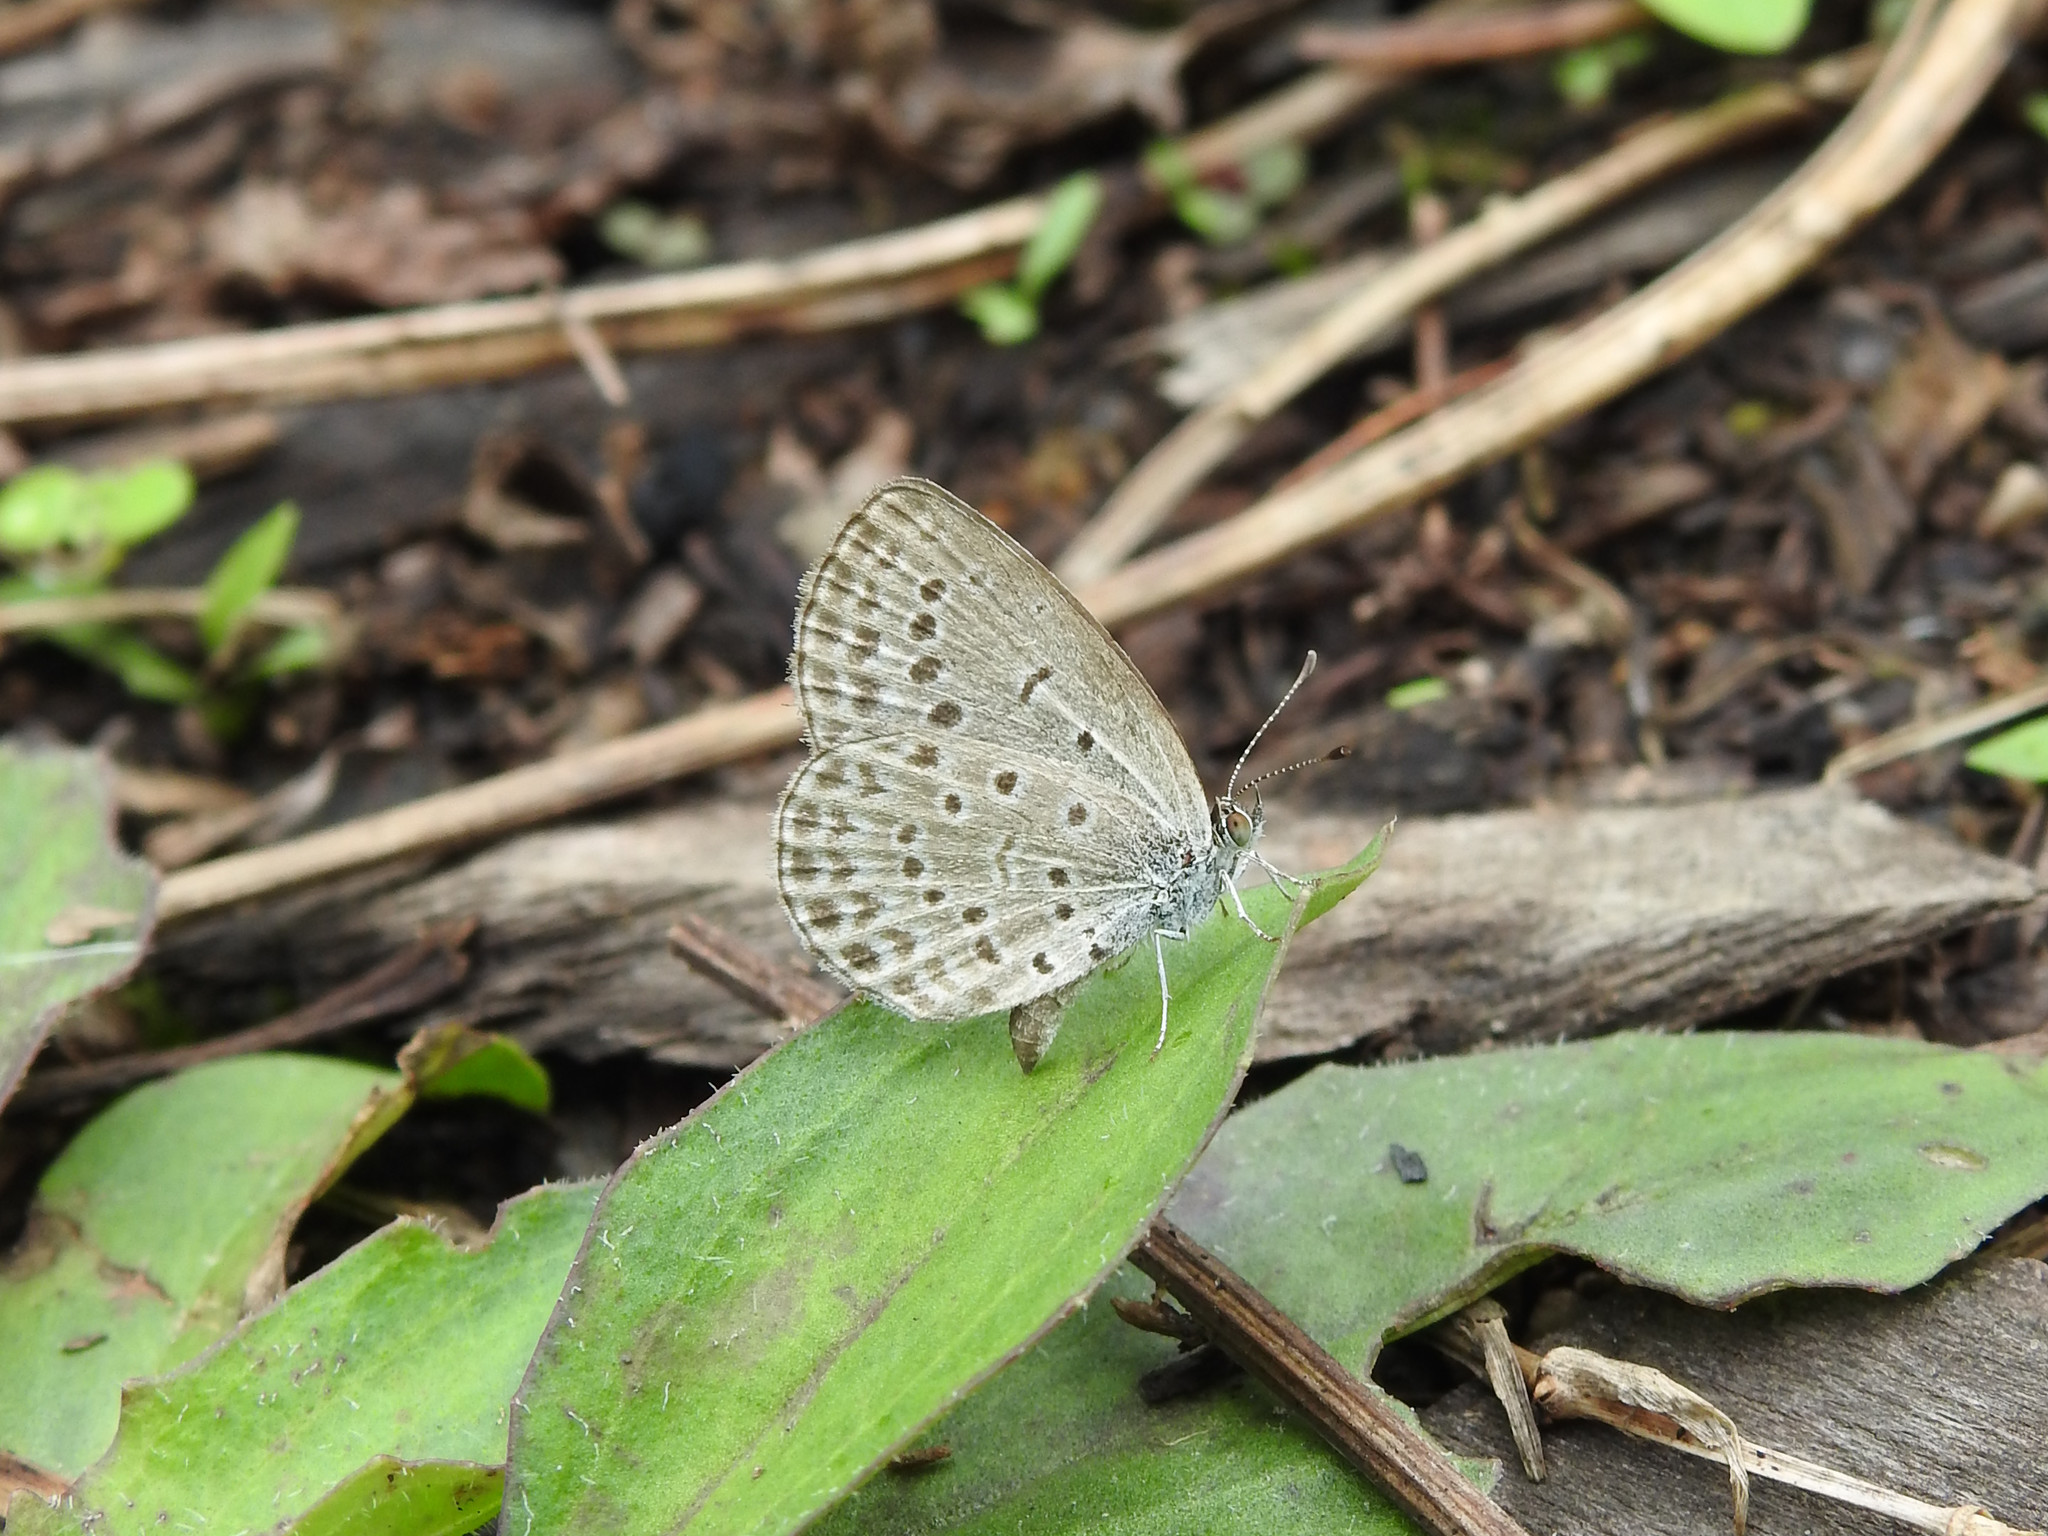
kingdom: Animalia
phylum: Arthropoda
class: Insecta
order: Lepidoptera
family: Lycaenidae
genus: Pseudozizeeria
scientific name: Pseudozizeeria maha
